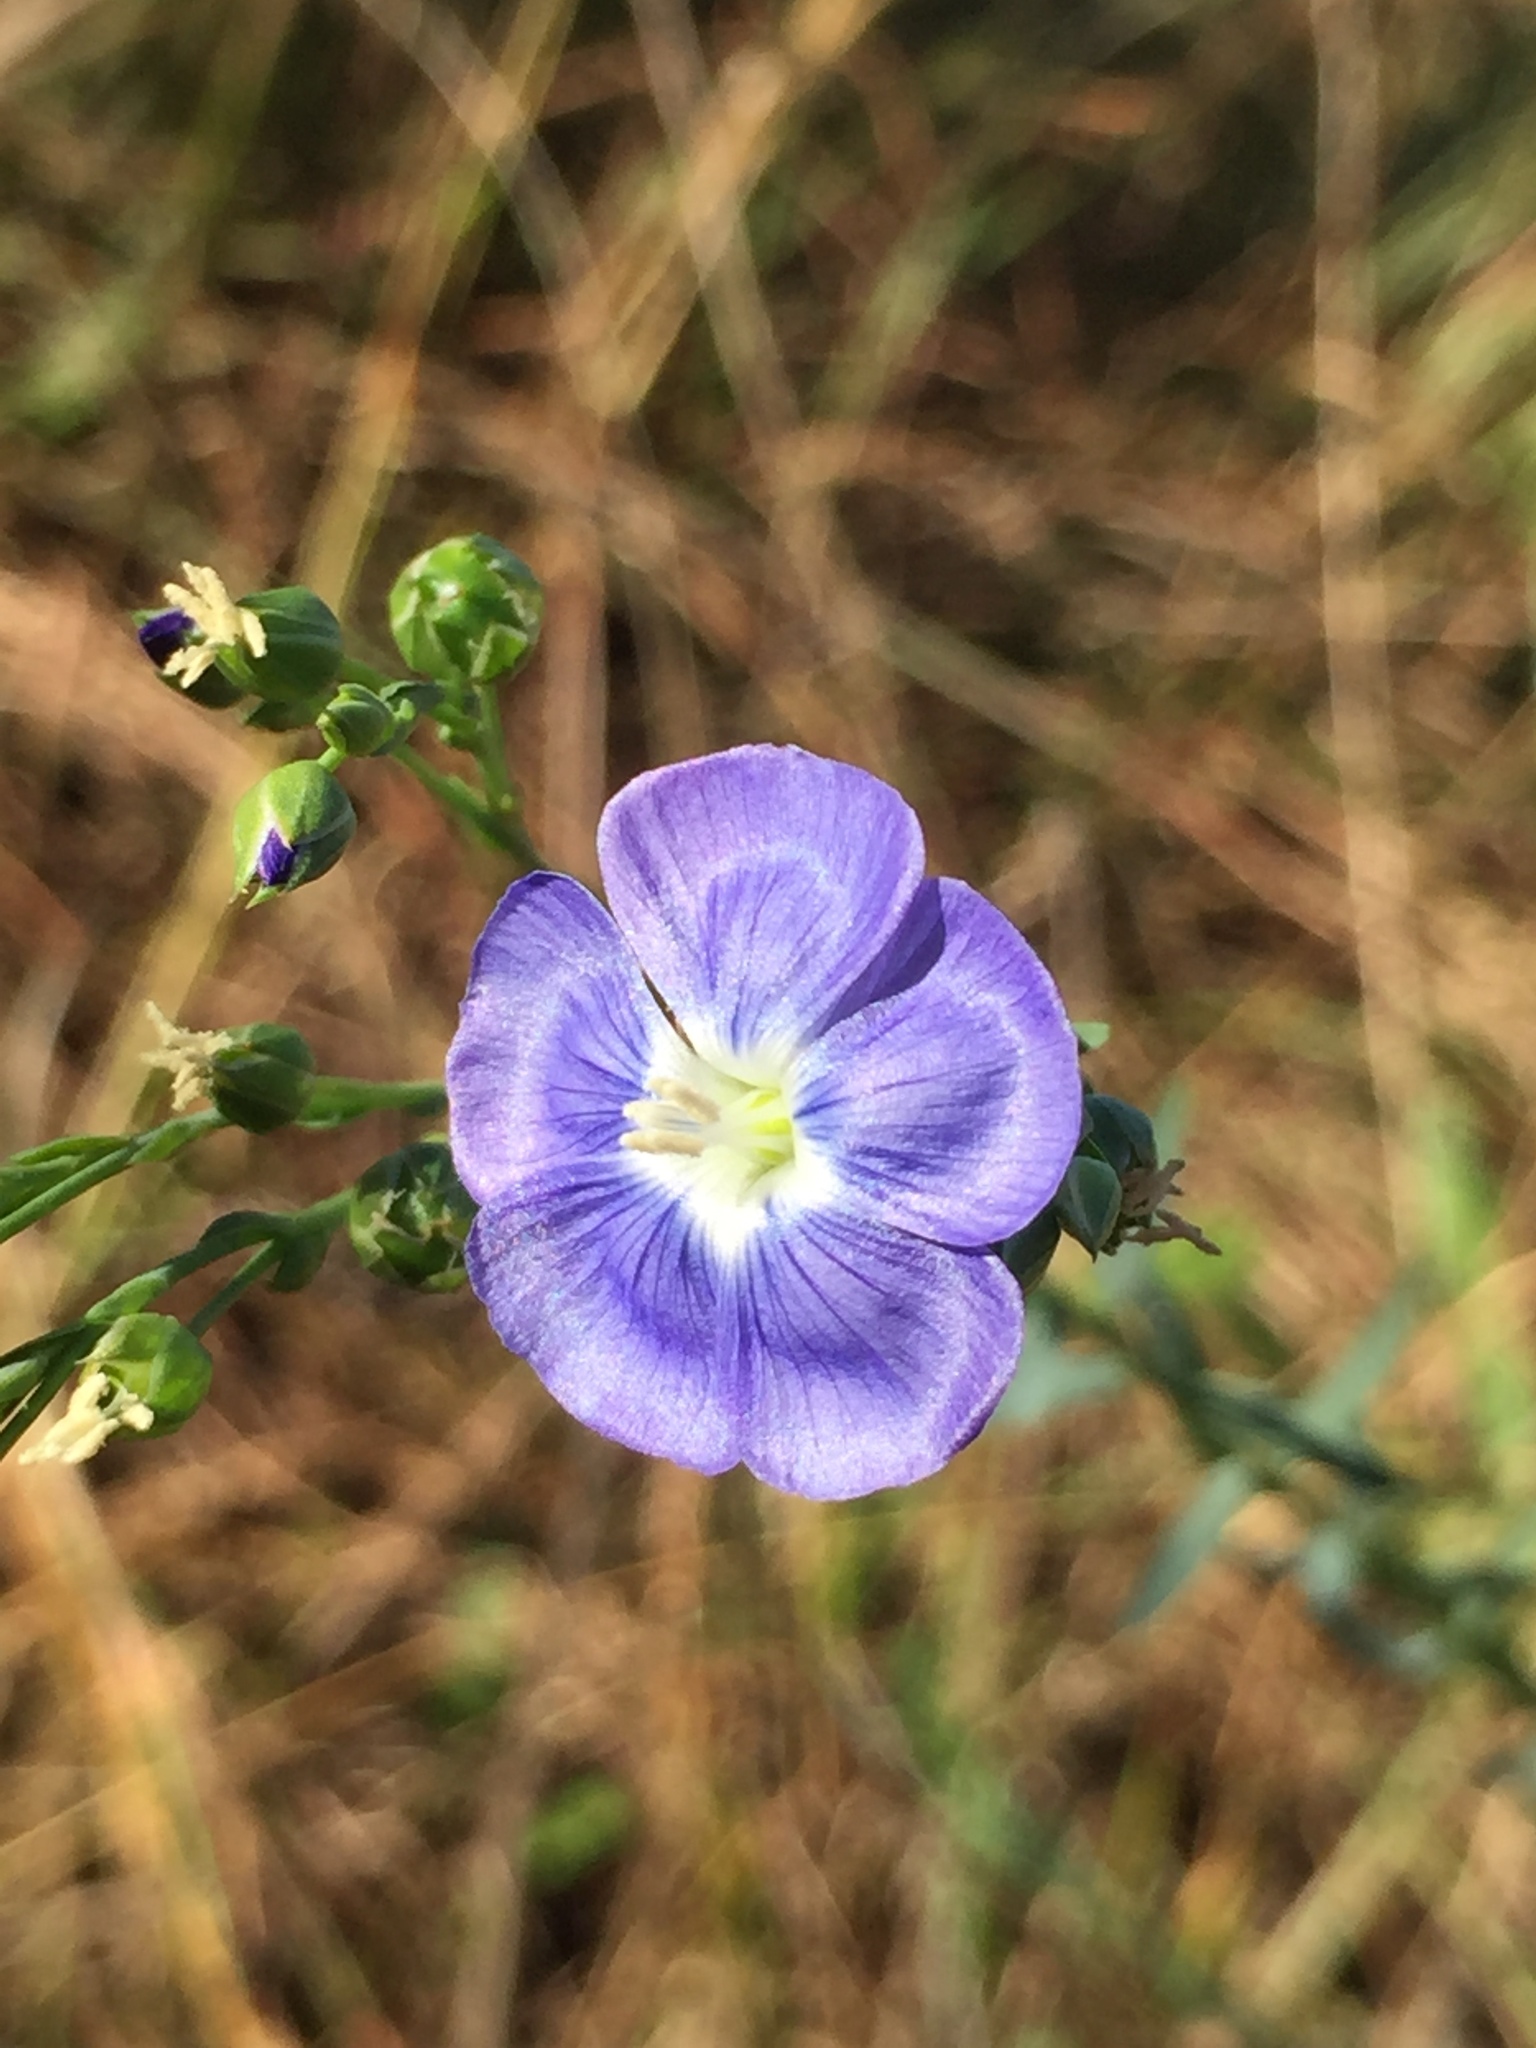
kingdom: Plantae
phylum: Tracheophyta
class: Magnoliopsida
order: Malpighiales
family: Linaceae
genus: Linum
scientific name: Linum marginale
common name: Wild flax
